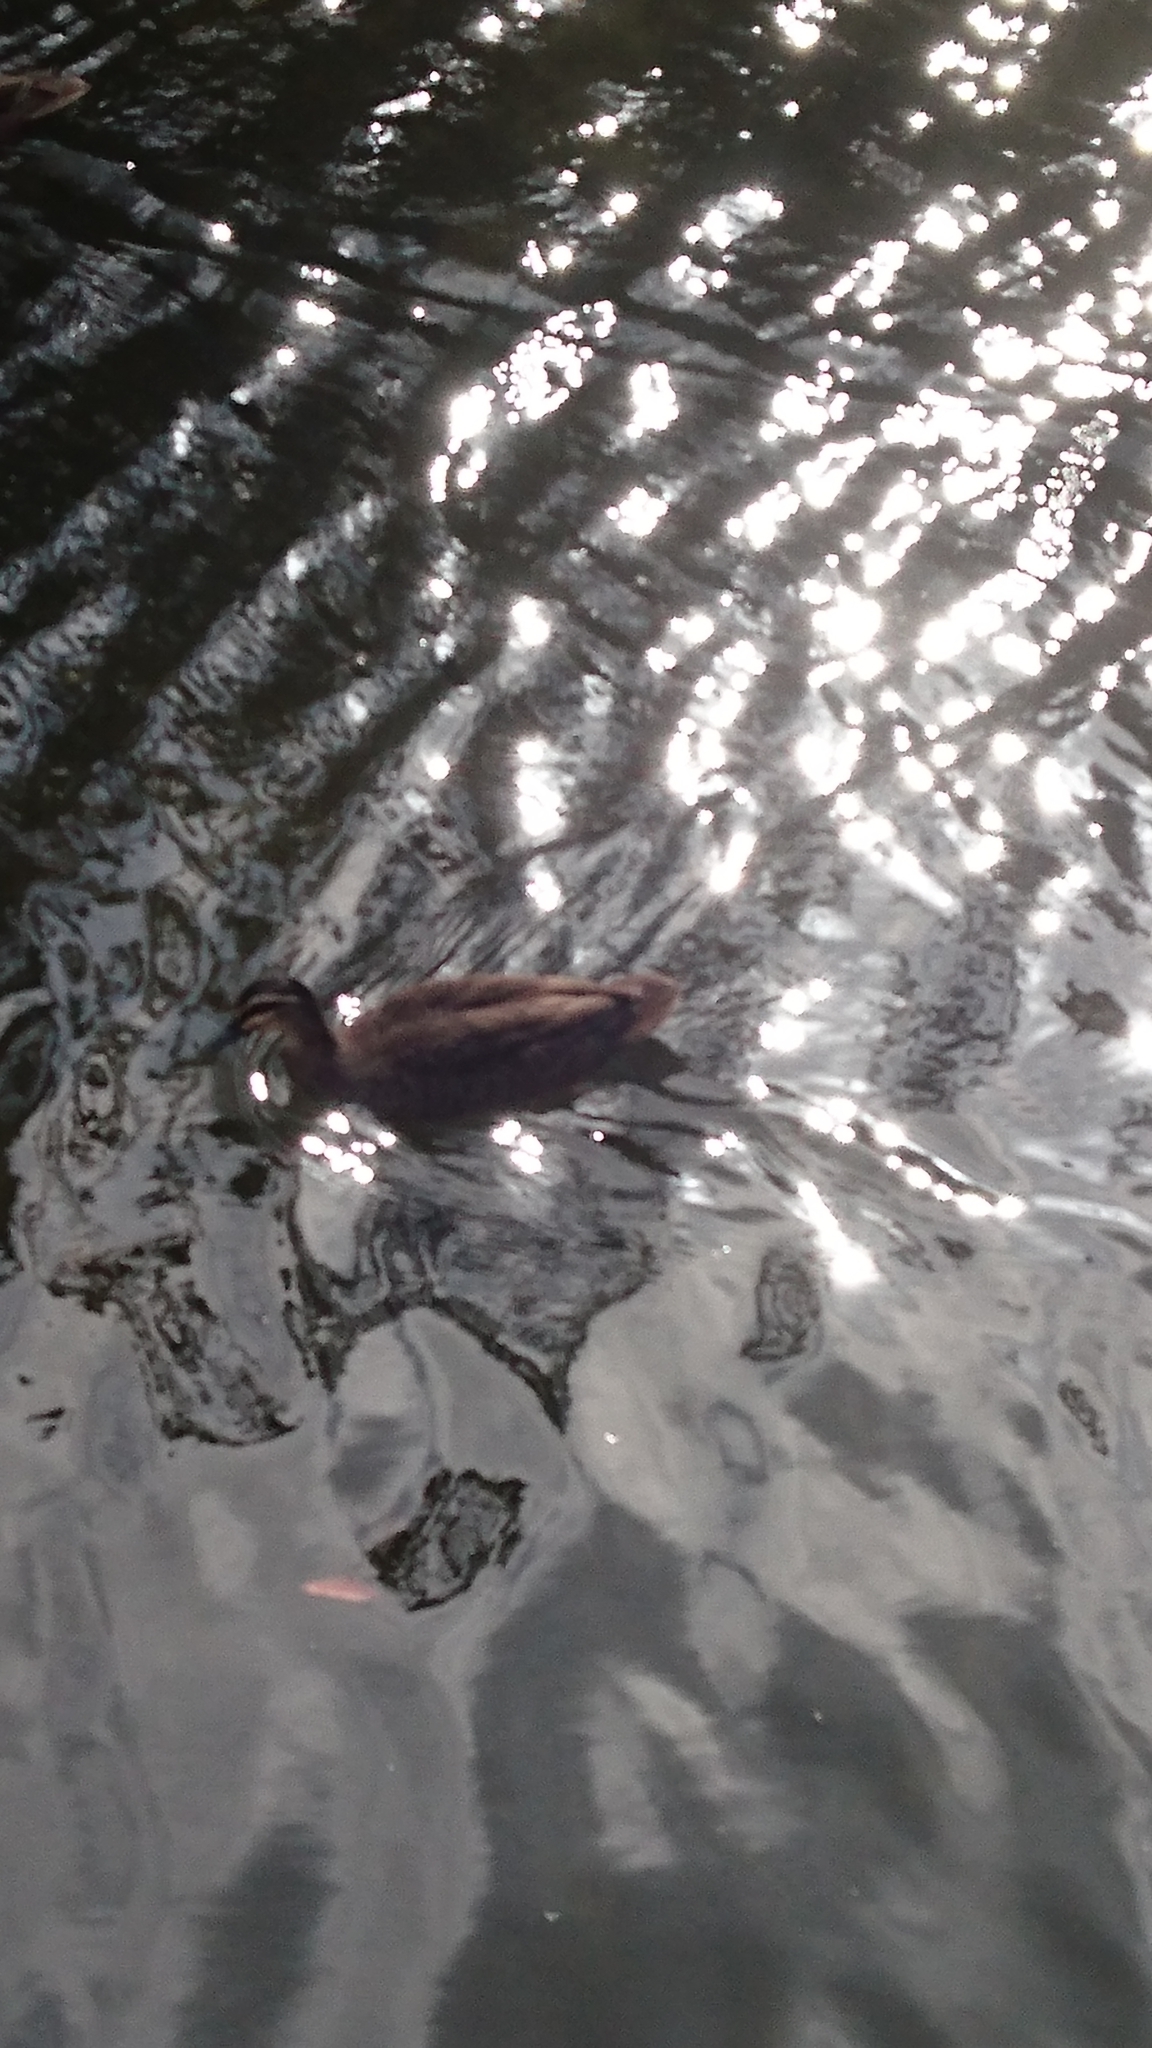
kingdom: Animalia
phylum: Chordata
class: Aves
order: Anseriformes
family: Anatidae
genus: Anas
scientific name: Anas superciliosa
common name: Pacific black duck
